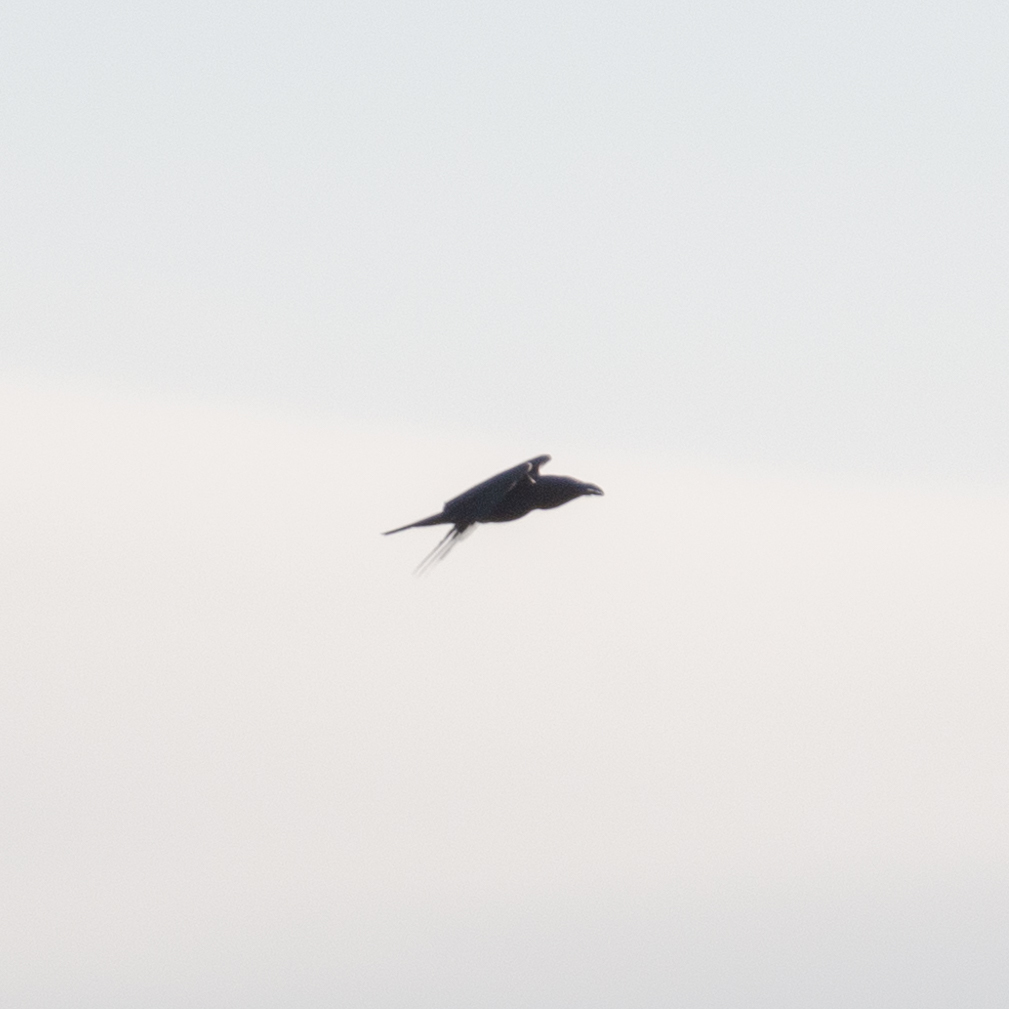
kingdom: Animalia
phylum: Chordata
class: Aves
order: Passeriformes
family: Corvidae
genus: Corvus
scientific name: Corvus corax
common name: Common raven
